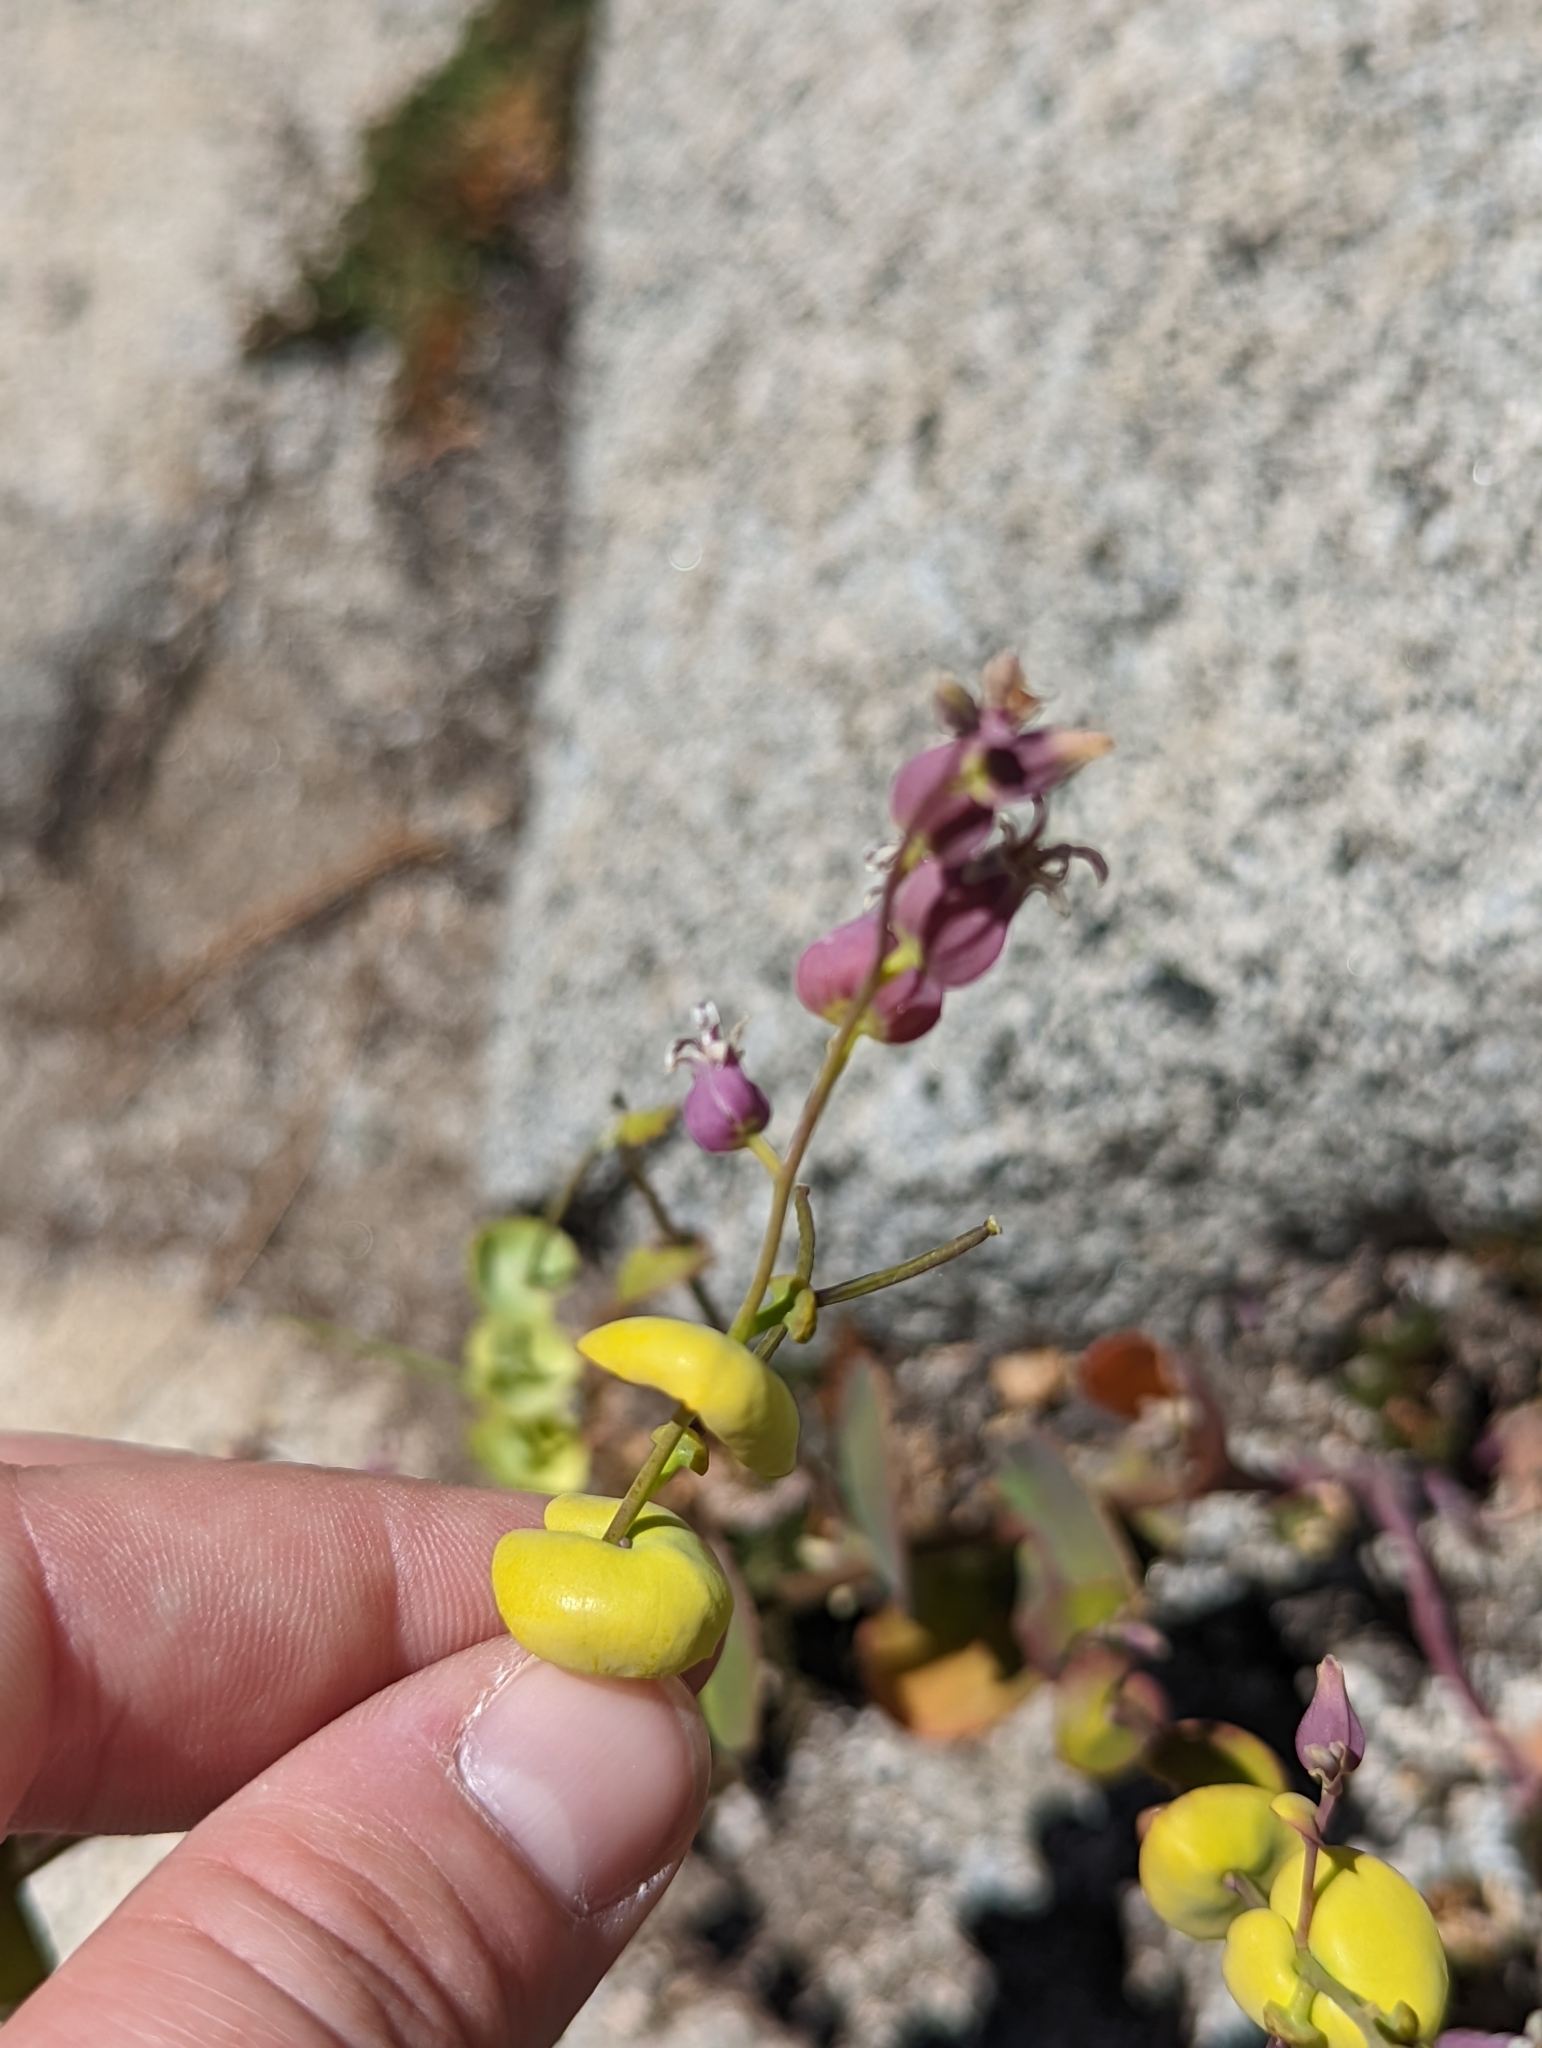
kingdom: Plantae
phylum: Tracheophyta
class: Magnoliopsida
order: Brassicales
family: Brassicaceae
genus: Streptanthus
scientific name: Streptanthus tortuosus
